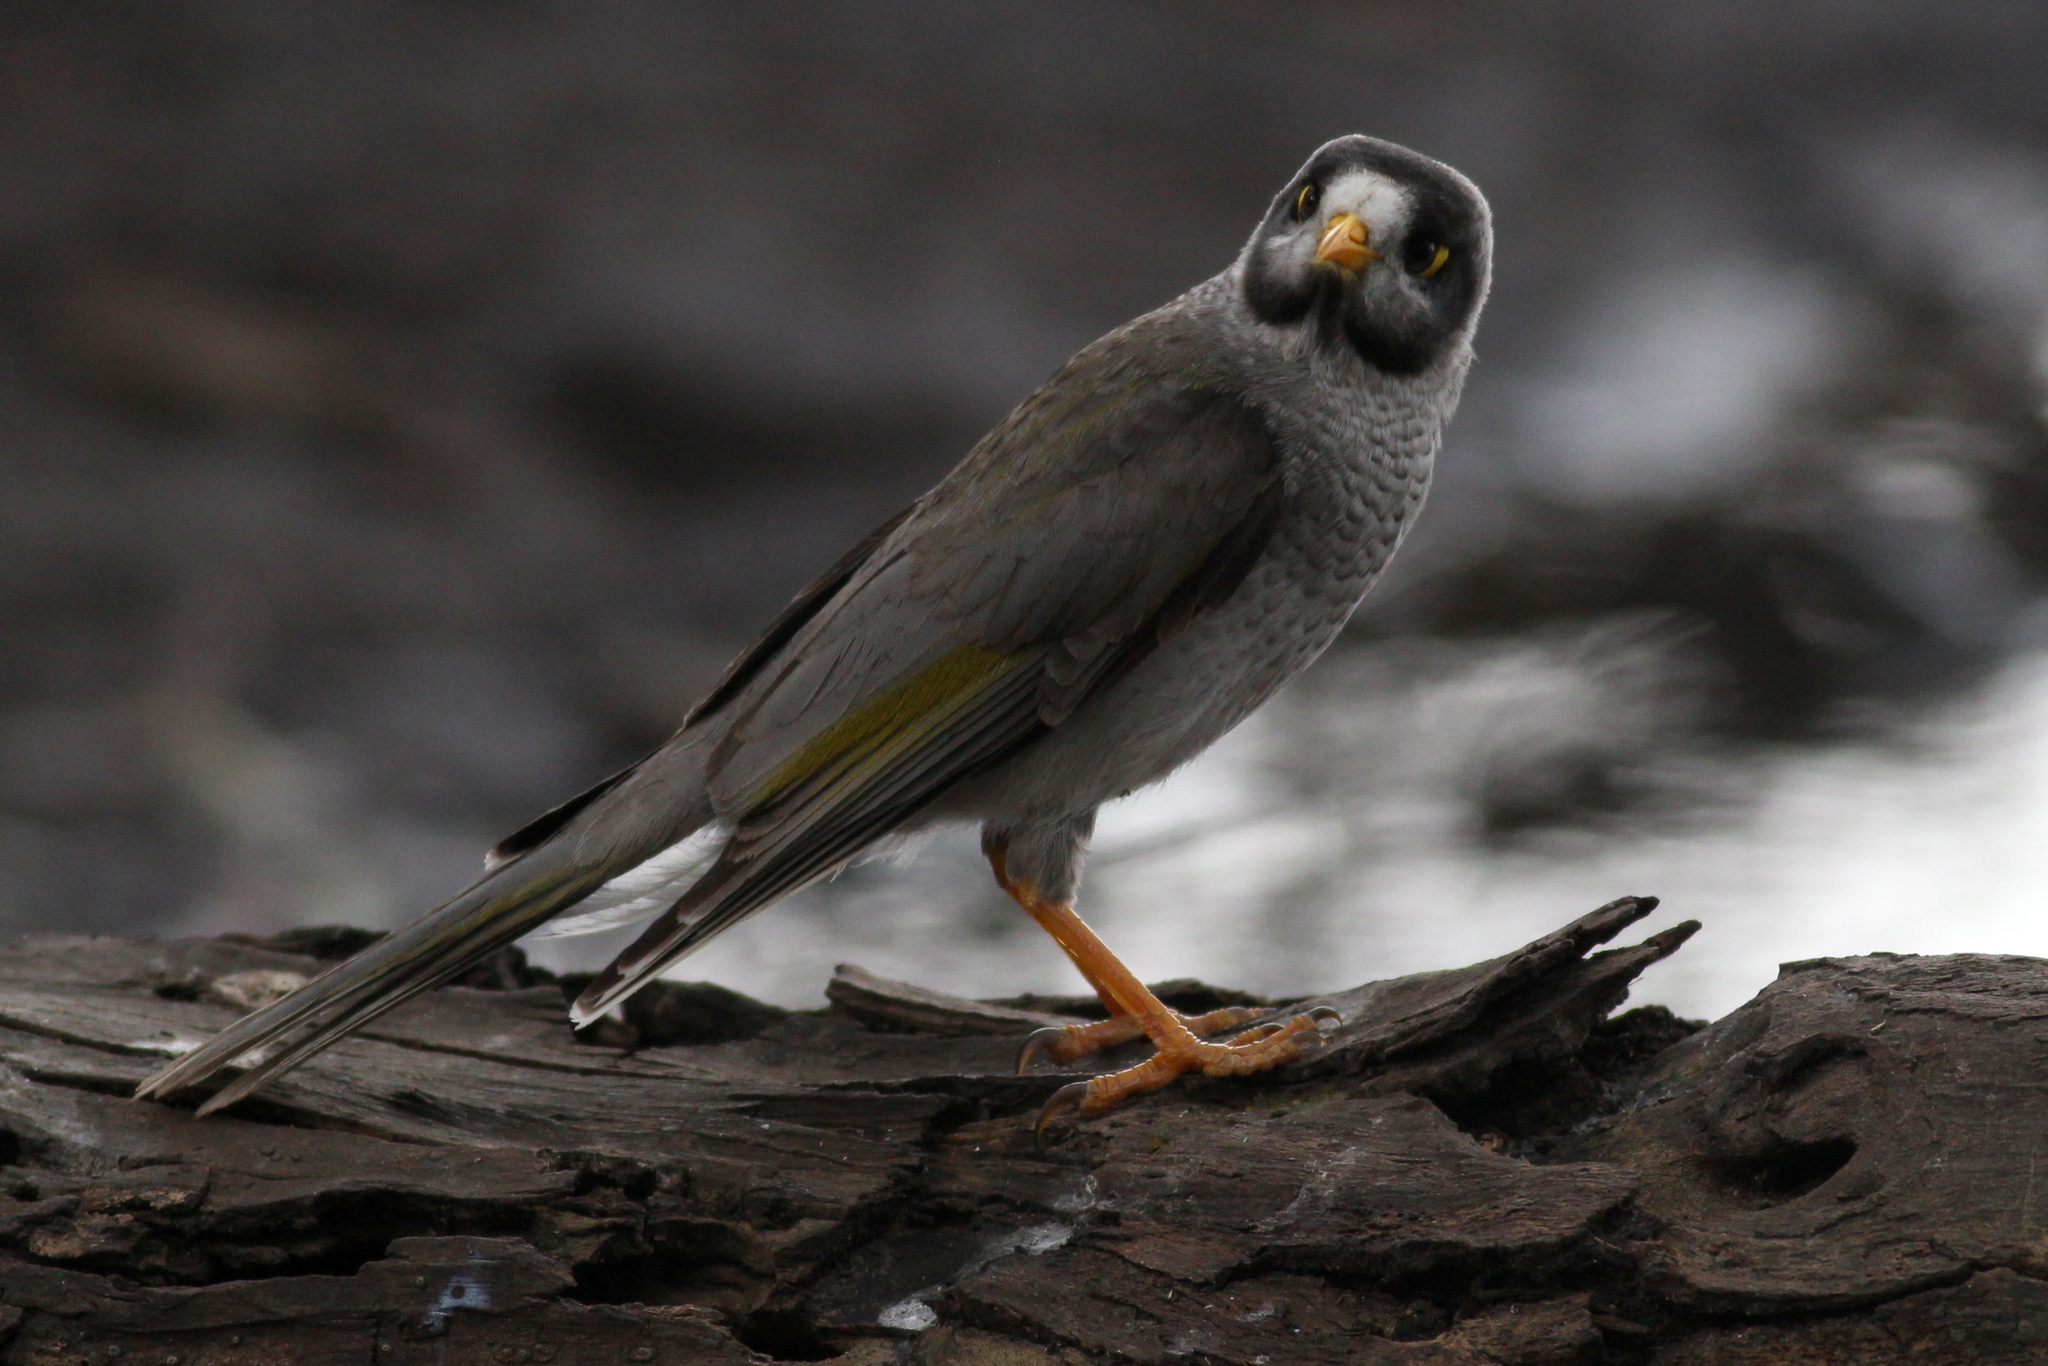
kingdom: Animalia
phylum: Chordata
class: Aves
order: Passeriformes
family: Meliphagidae
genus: Manorina
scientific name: Manorina melanocephala
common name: Noisy miner
